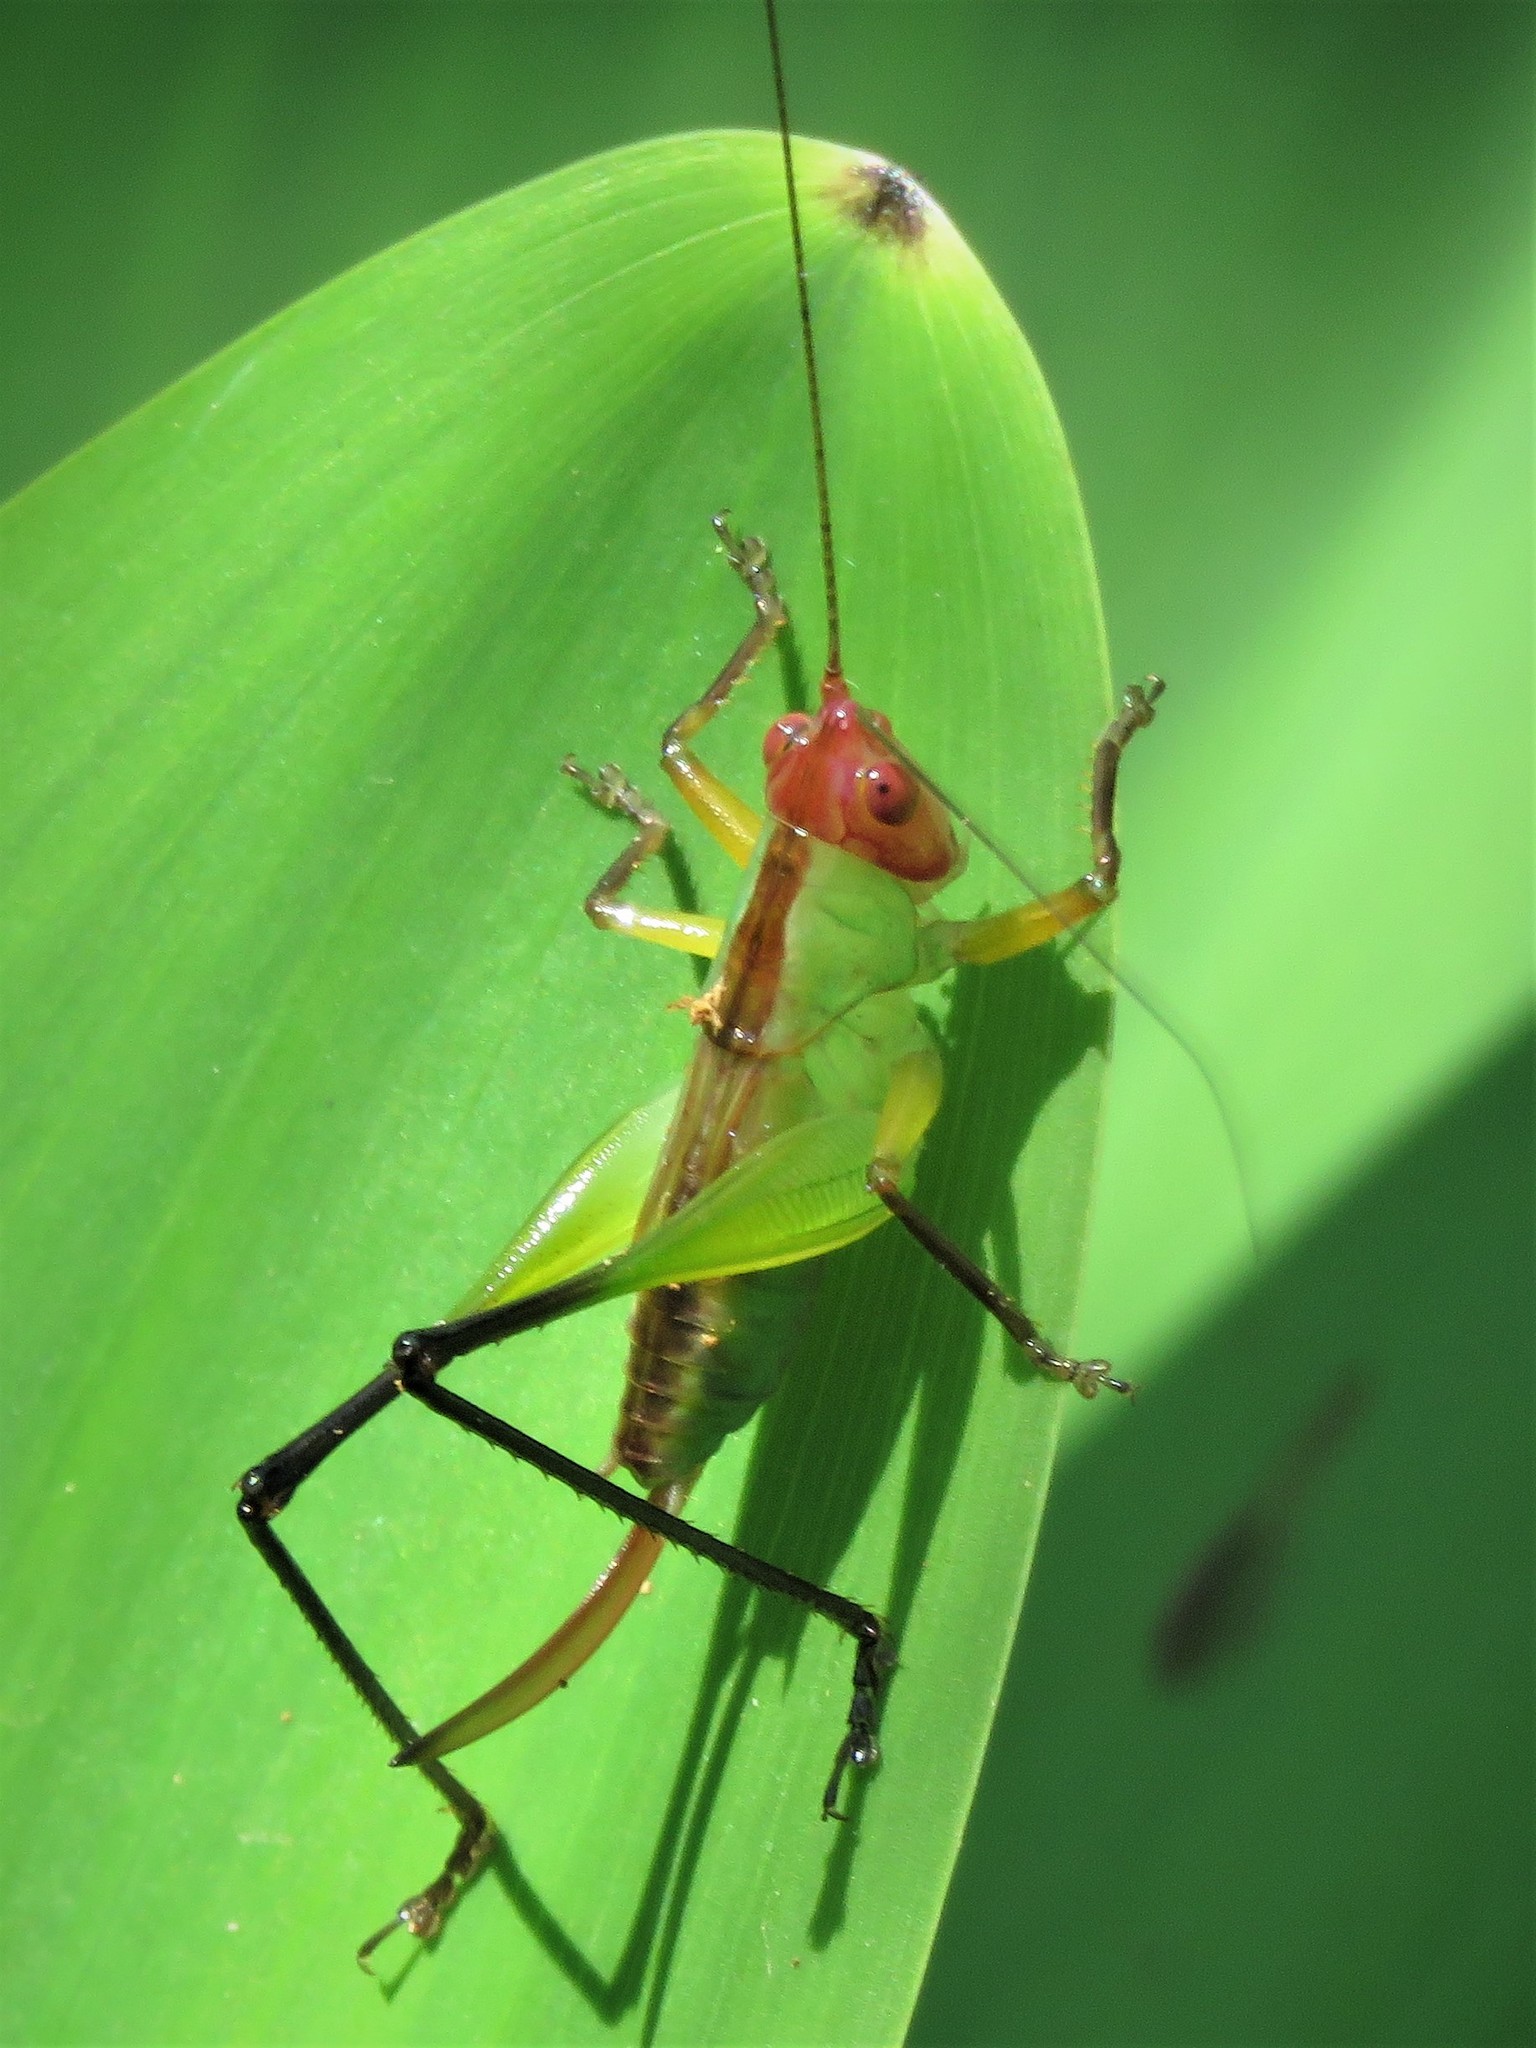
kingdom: Animalia
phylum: Arthropoda
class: Insecta
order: Orthoptera
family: Tettigoniidae
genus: Orchelimum
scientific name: Orchelimum nigripes
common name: Black-legged meadow katydid
